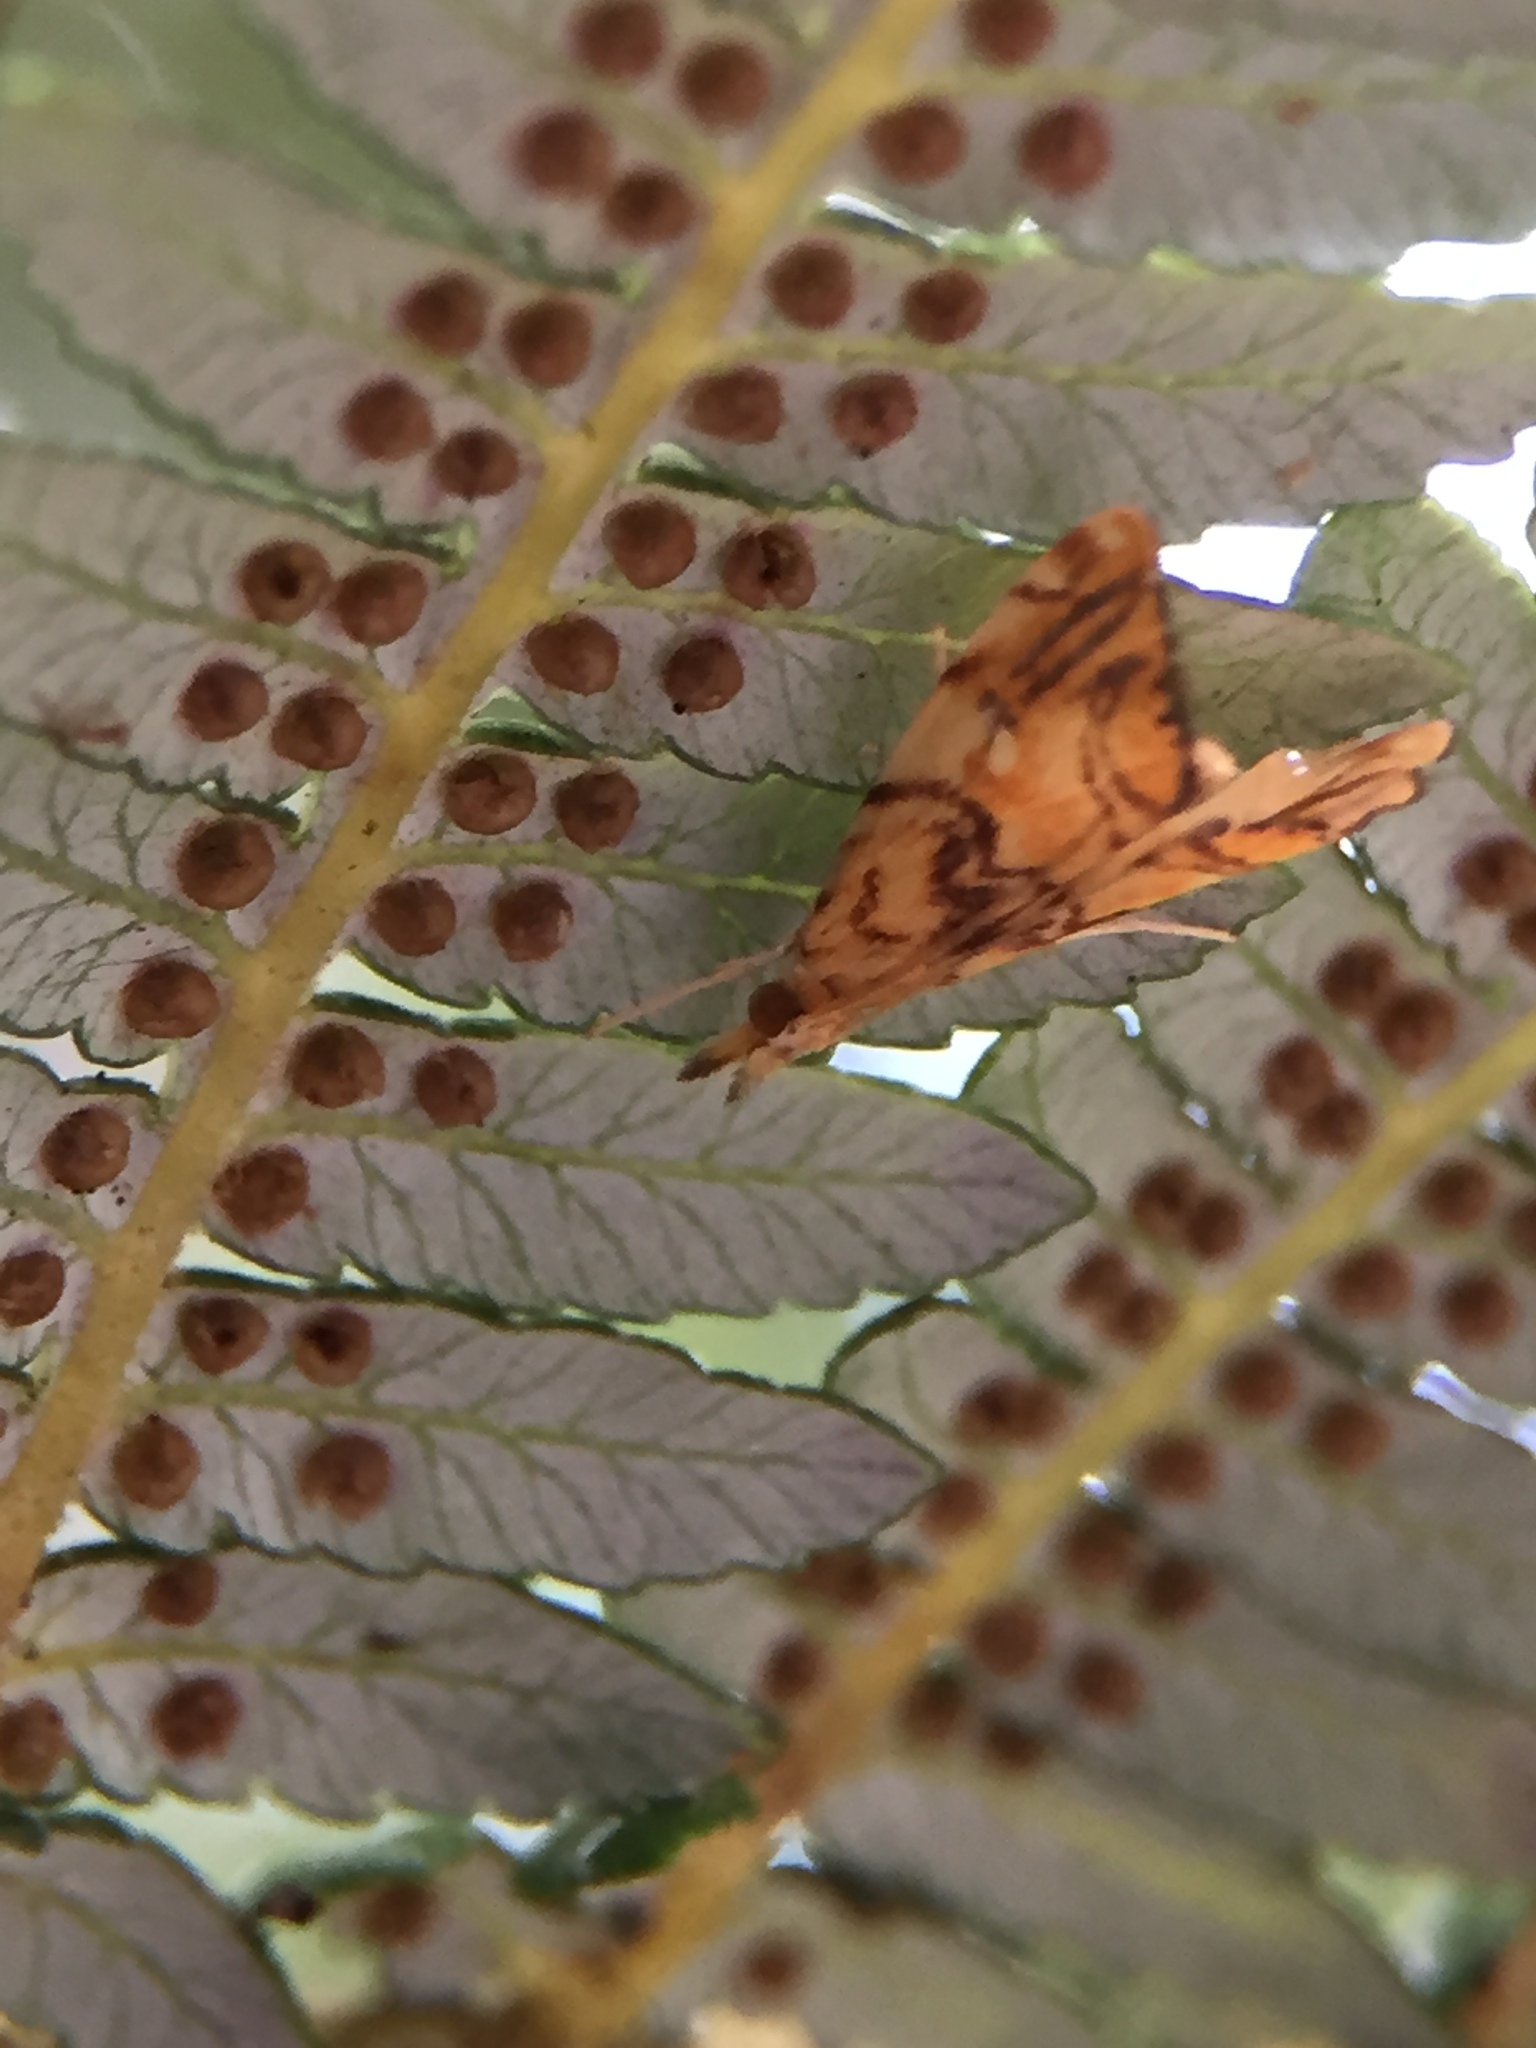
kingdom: Animalia
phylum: Arthropoda
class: Insecta
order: Lepidoptera
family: Crambidae
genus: Glaucocharis
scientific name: Glaucocharis selenaea
